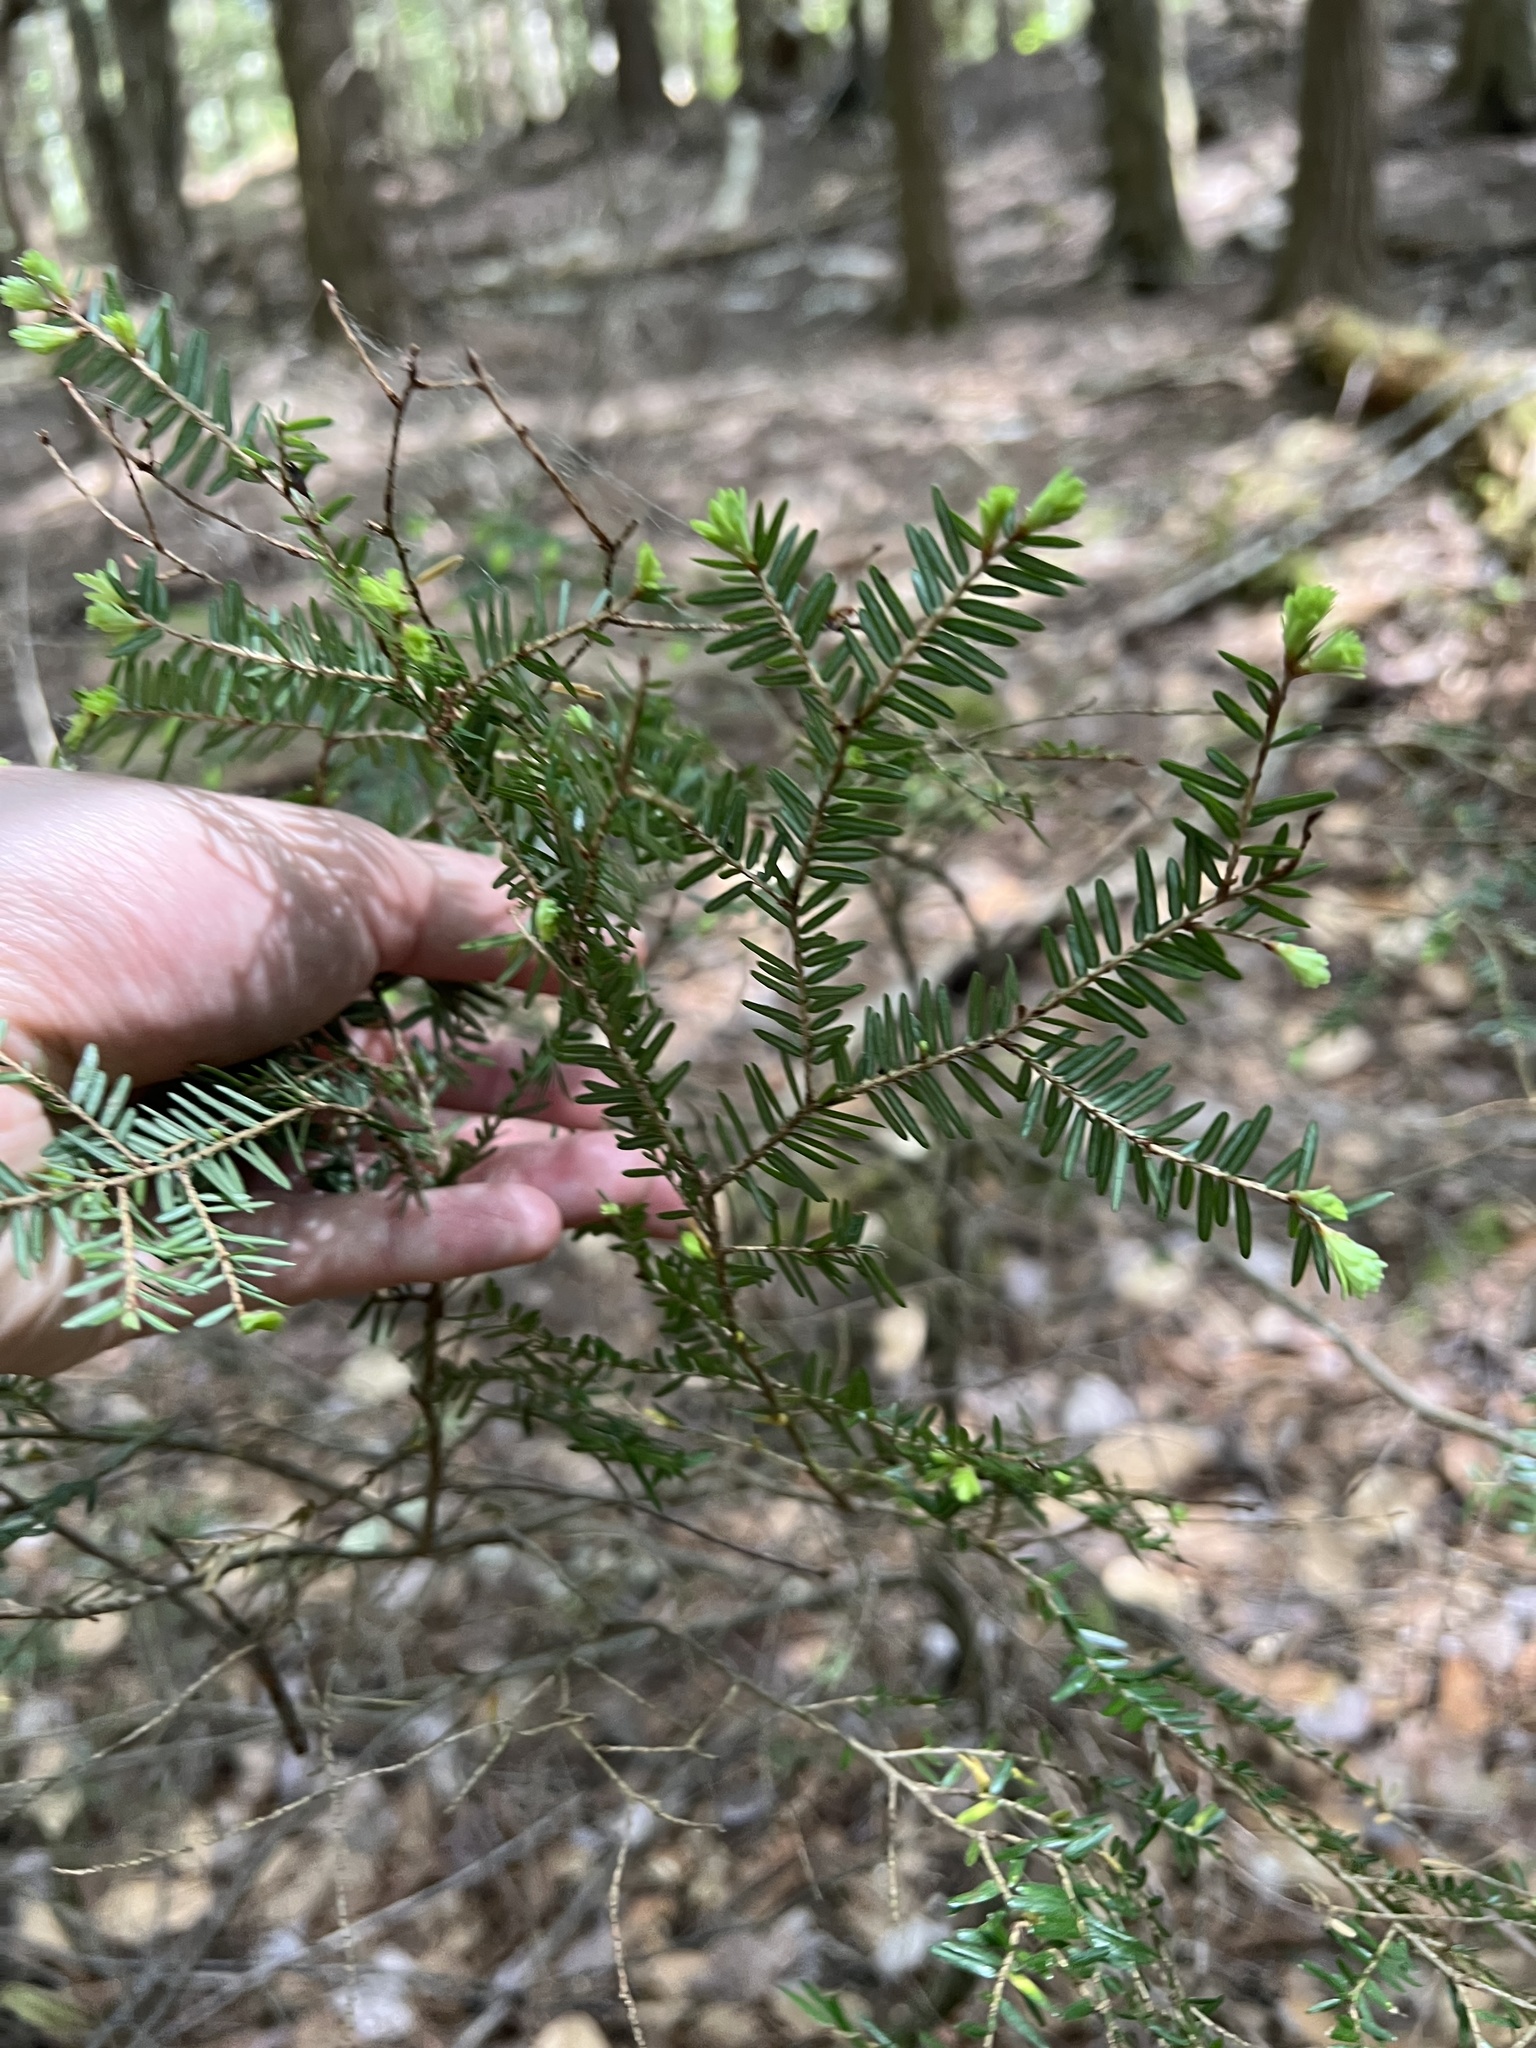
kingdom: Plantae
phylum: Tracheophyta
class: Pinopsida
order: Pinales
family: Pinaceae
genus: Tsuga
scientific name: Tsuga canadensis
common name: Eastern hemlock
